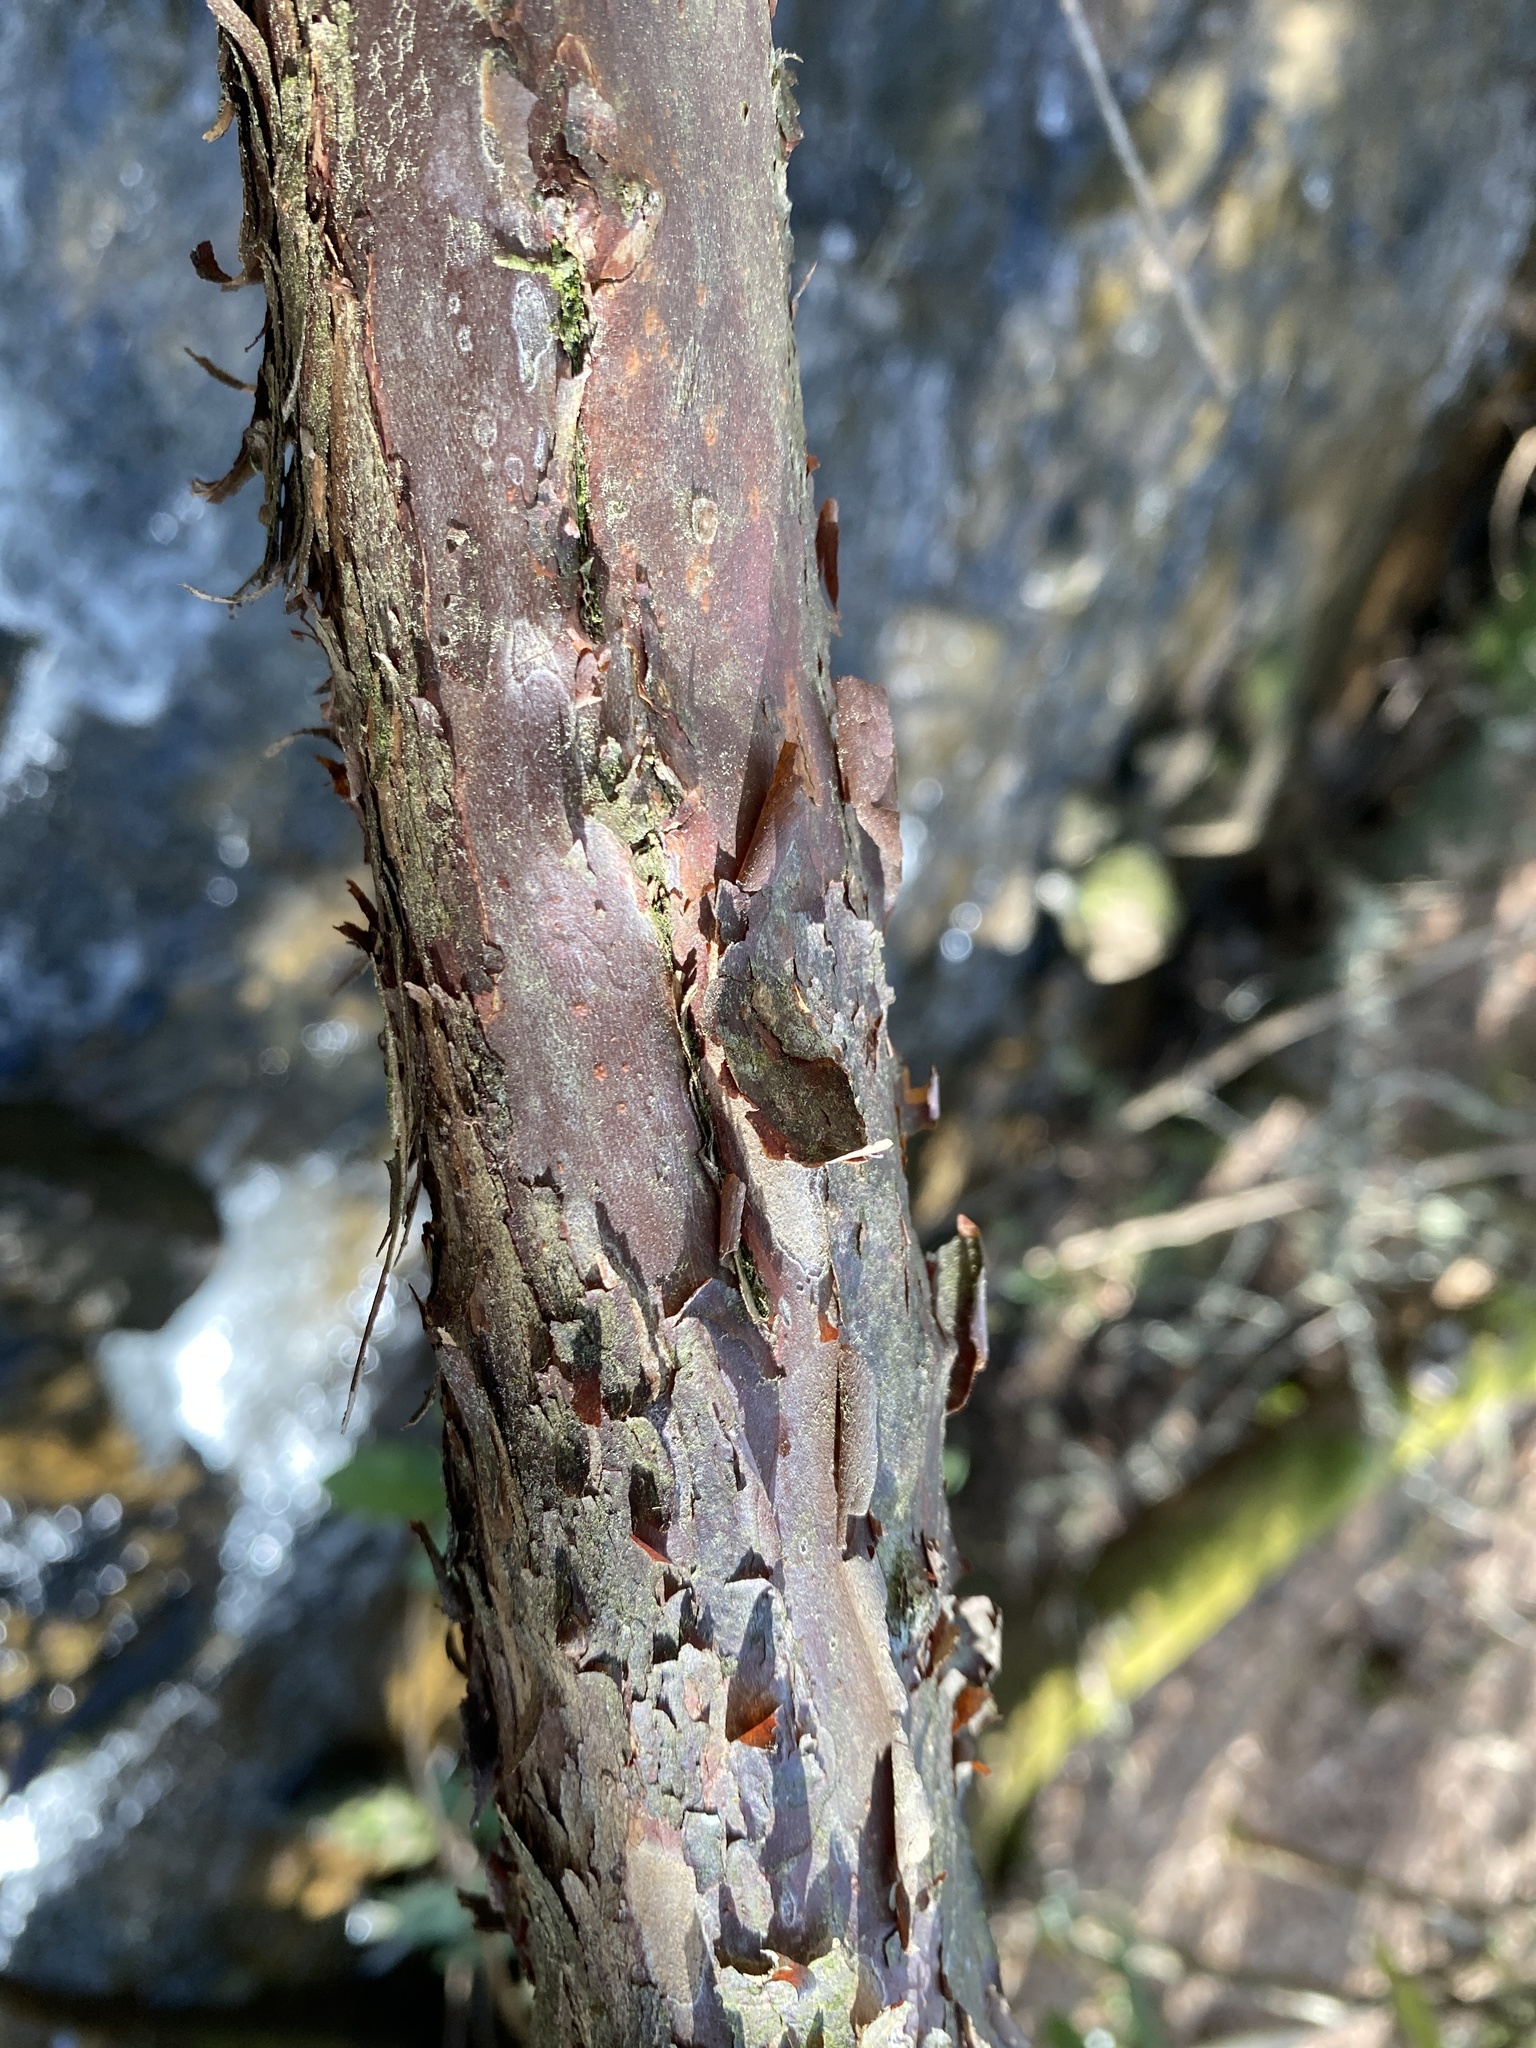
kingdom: Plantae
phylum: Tracheophyta
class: Magnoliopsida
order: Ericales
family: Clethraceae
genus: Clethra
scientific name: Clethra acuminata
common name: Mountain sweet pepperbush
